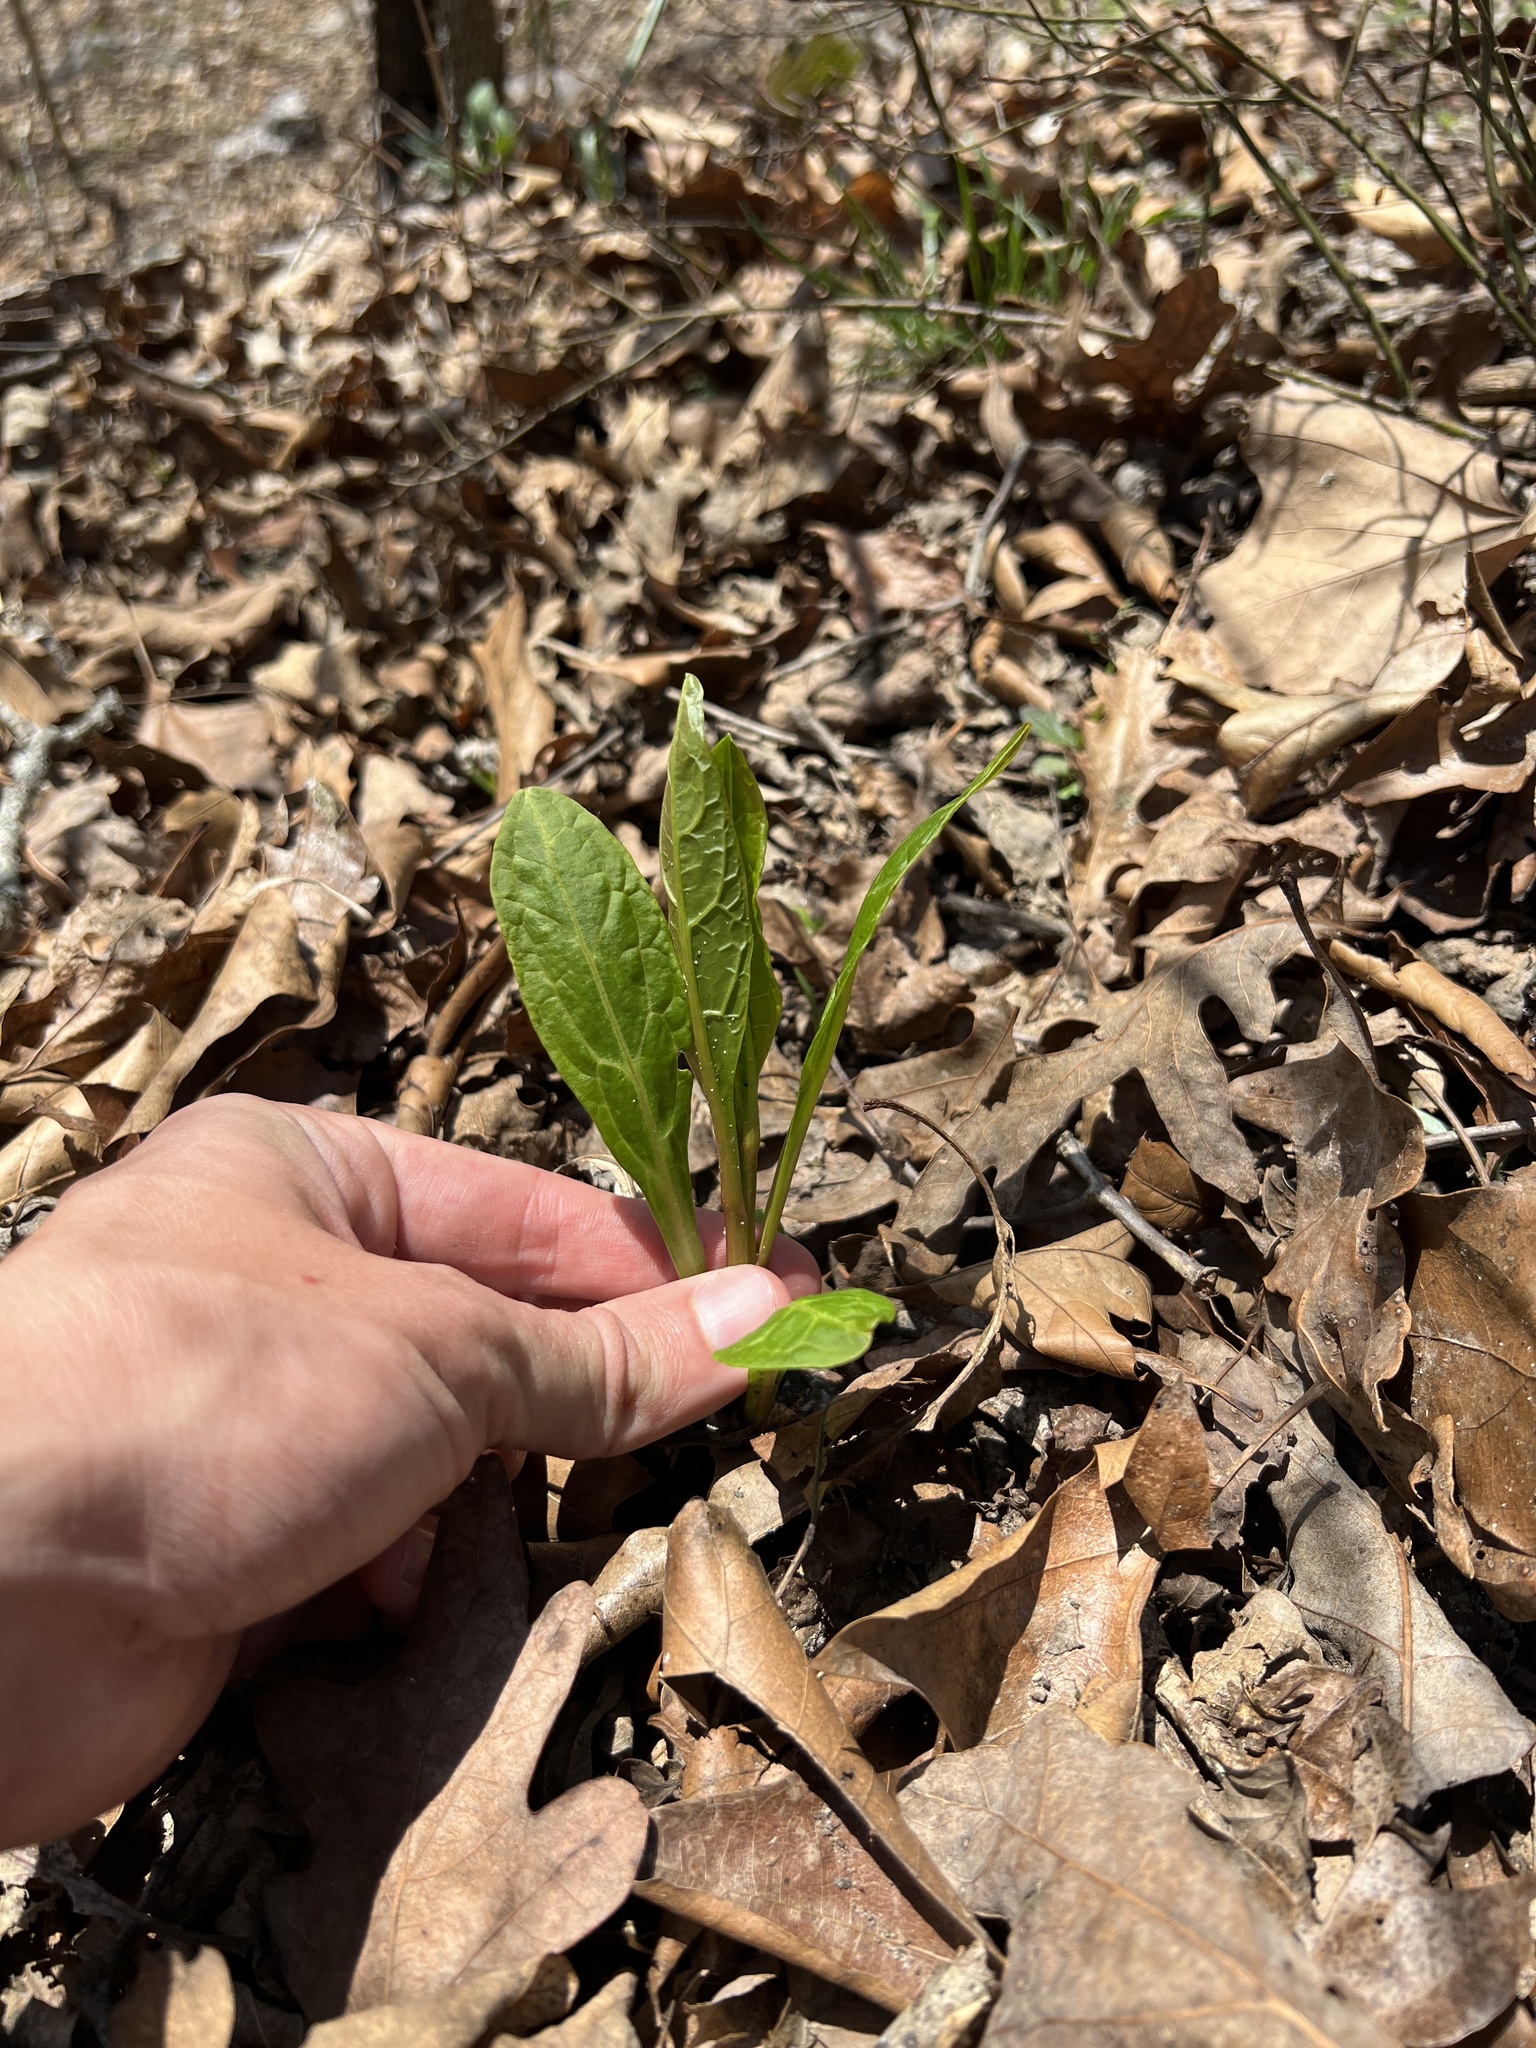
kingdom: Plantae
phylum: Tracheophyta
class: Magnoliopsida
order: Caryophyllales
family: Phytolaccaceae
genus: Phytolacca
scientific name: Phytolacca americana
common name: American pokeweed
